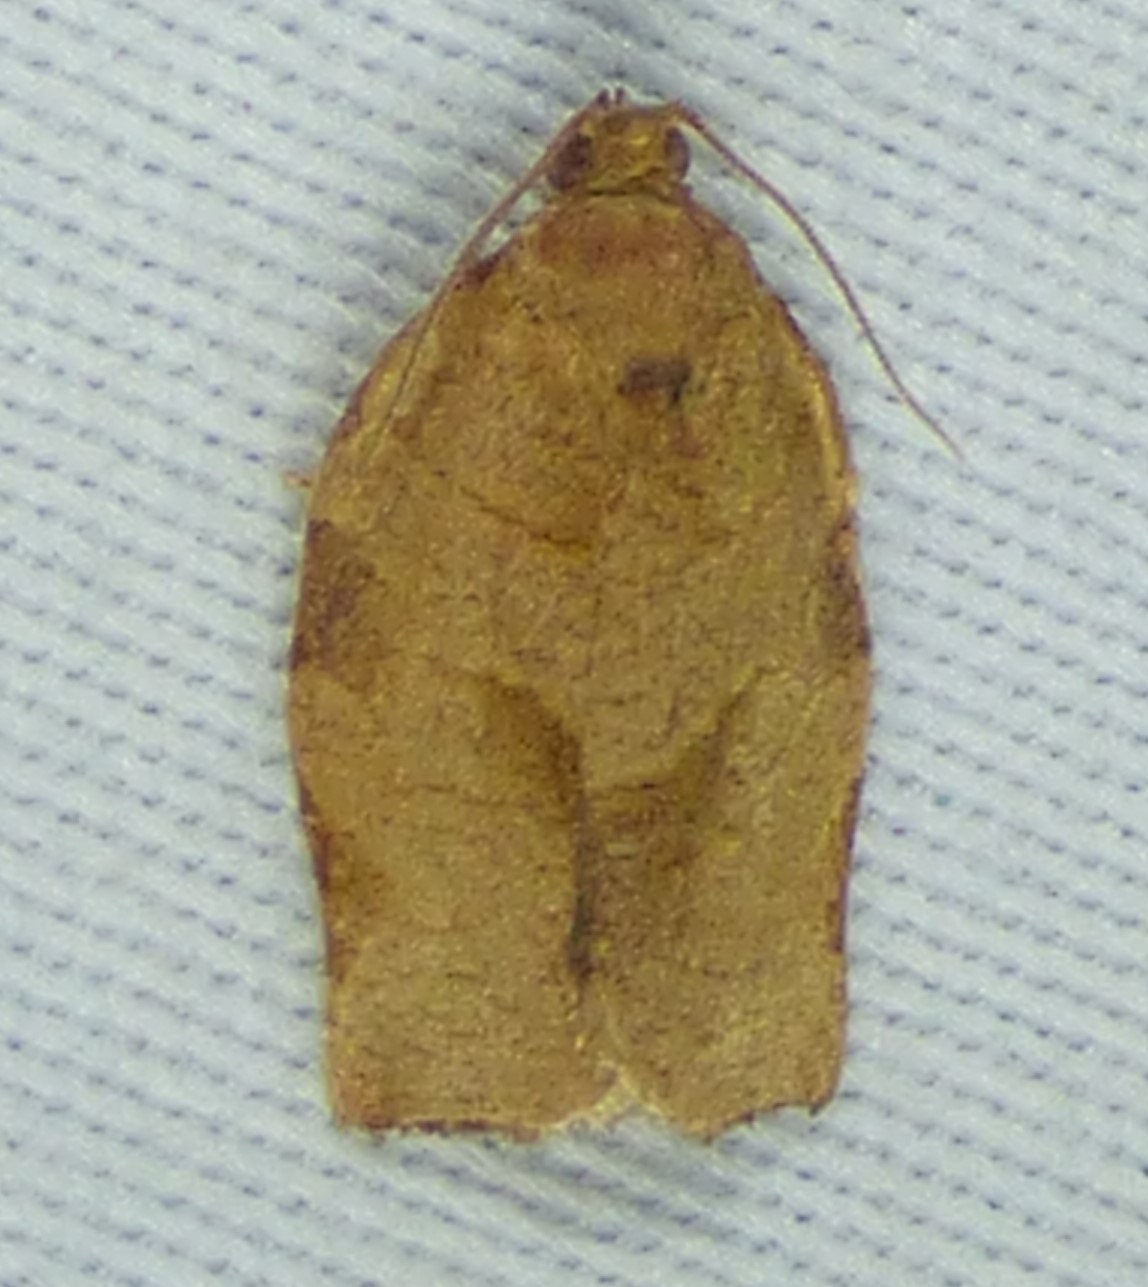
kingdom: Animalia
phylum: Arthropoda
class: Insecta
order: Lepidoptera
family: Tortricidae
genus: Choristoneura
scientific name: Choristoneura rosaceana
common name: Oblique-banded leafroller moth
